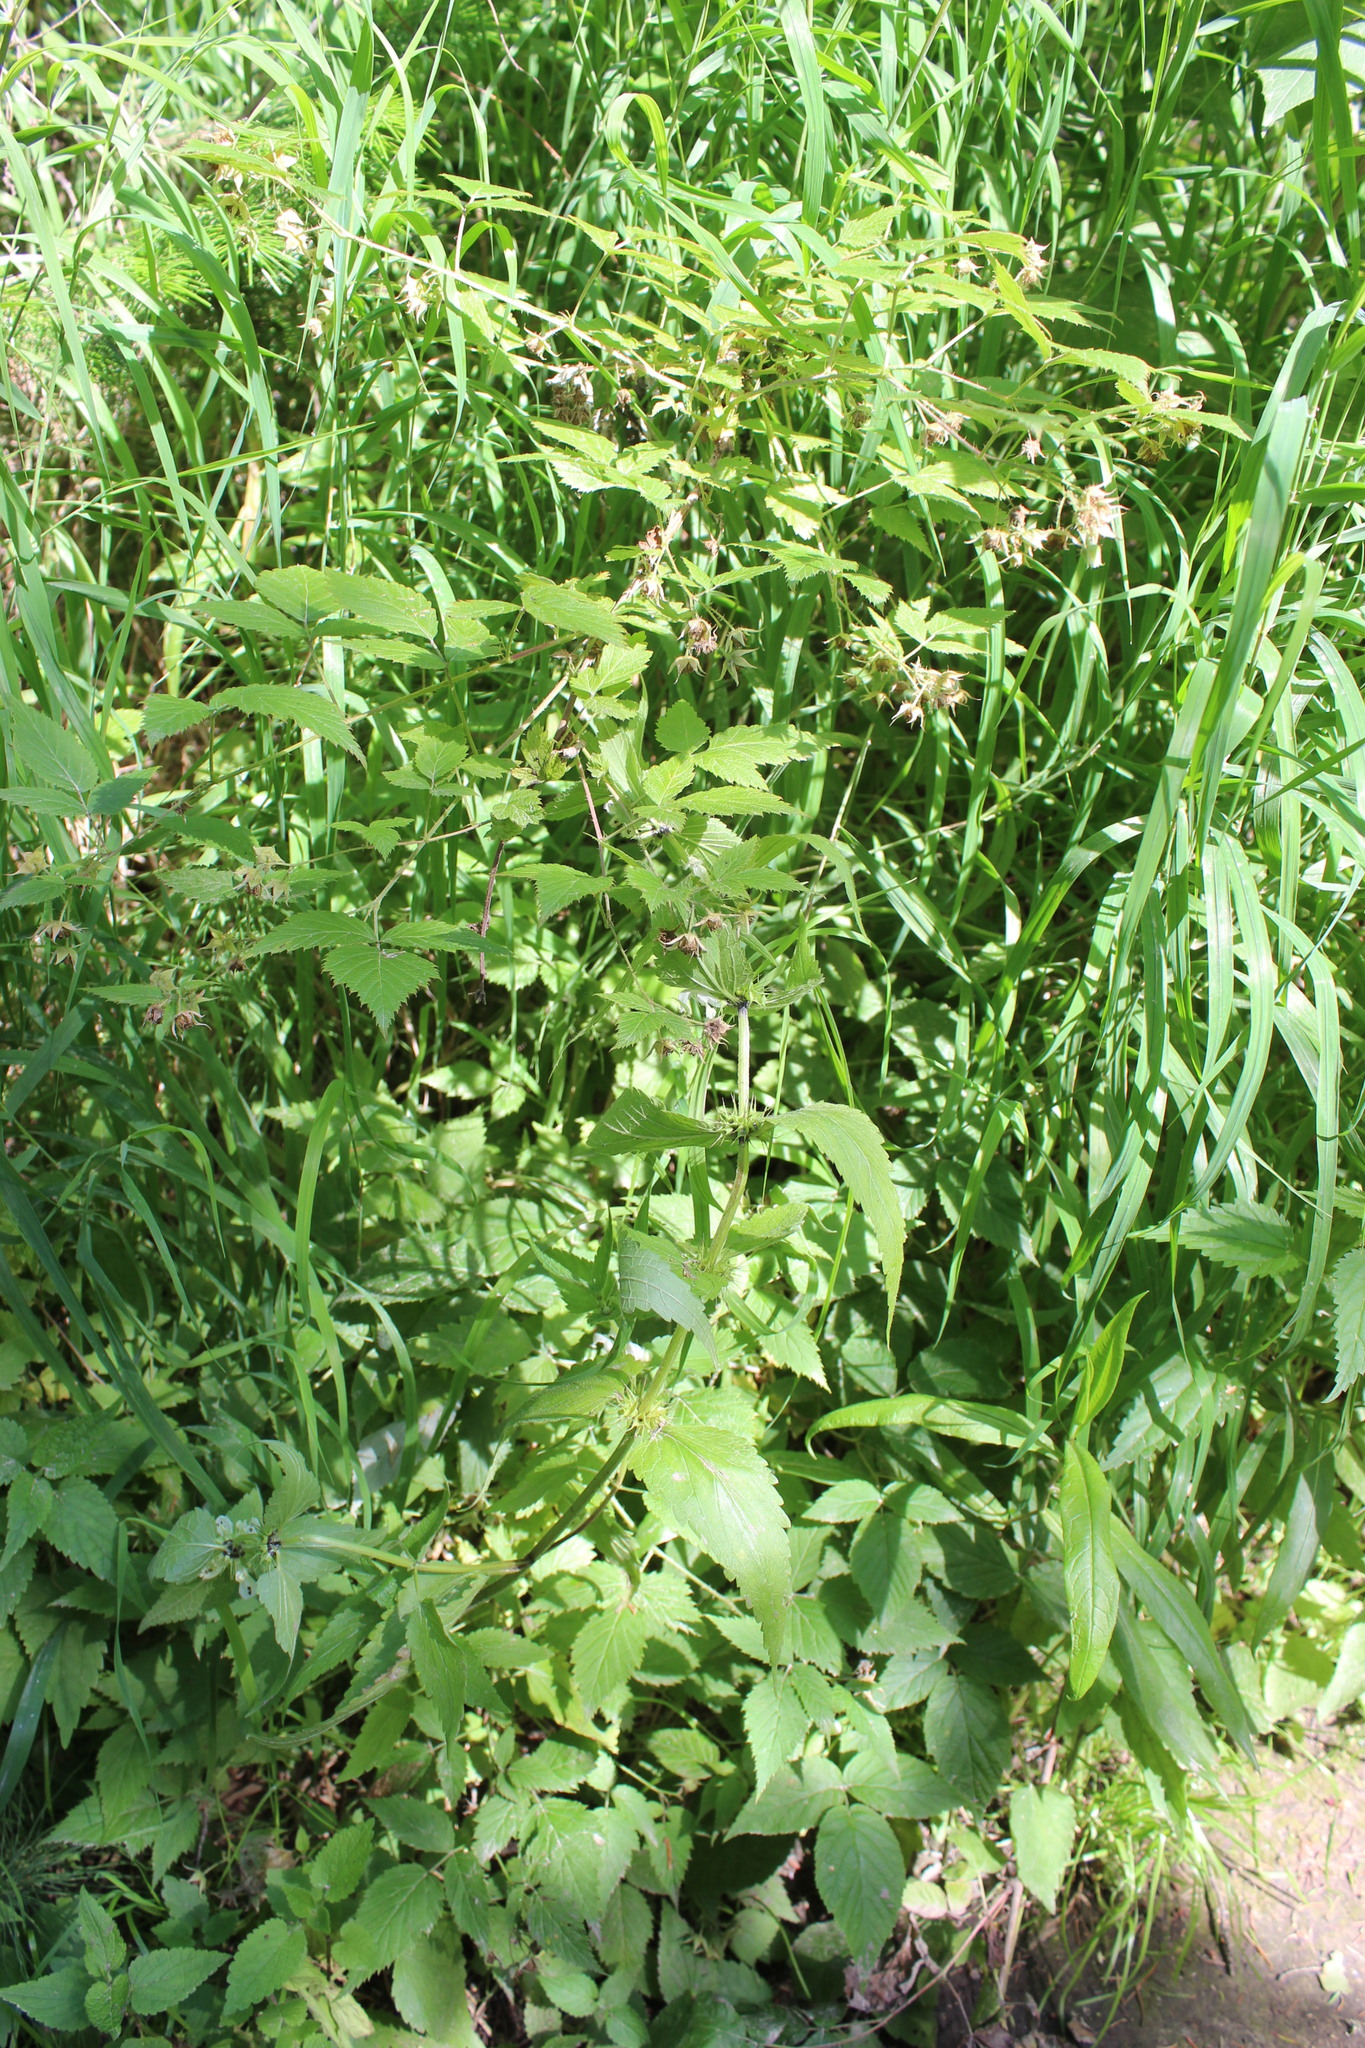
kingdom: Plantae
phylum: Tracheophyta
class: Magnoliopsida
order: Rosales
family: Rosaceae
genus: Rubus
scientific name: Rubus idaeus
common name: Raspberry
